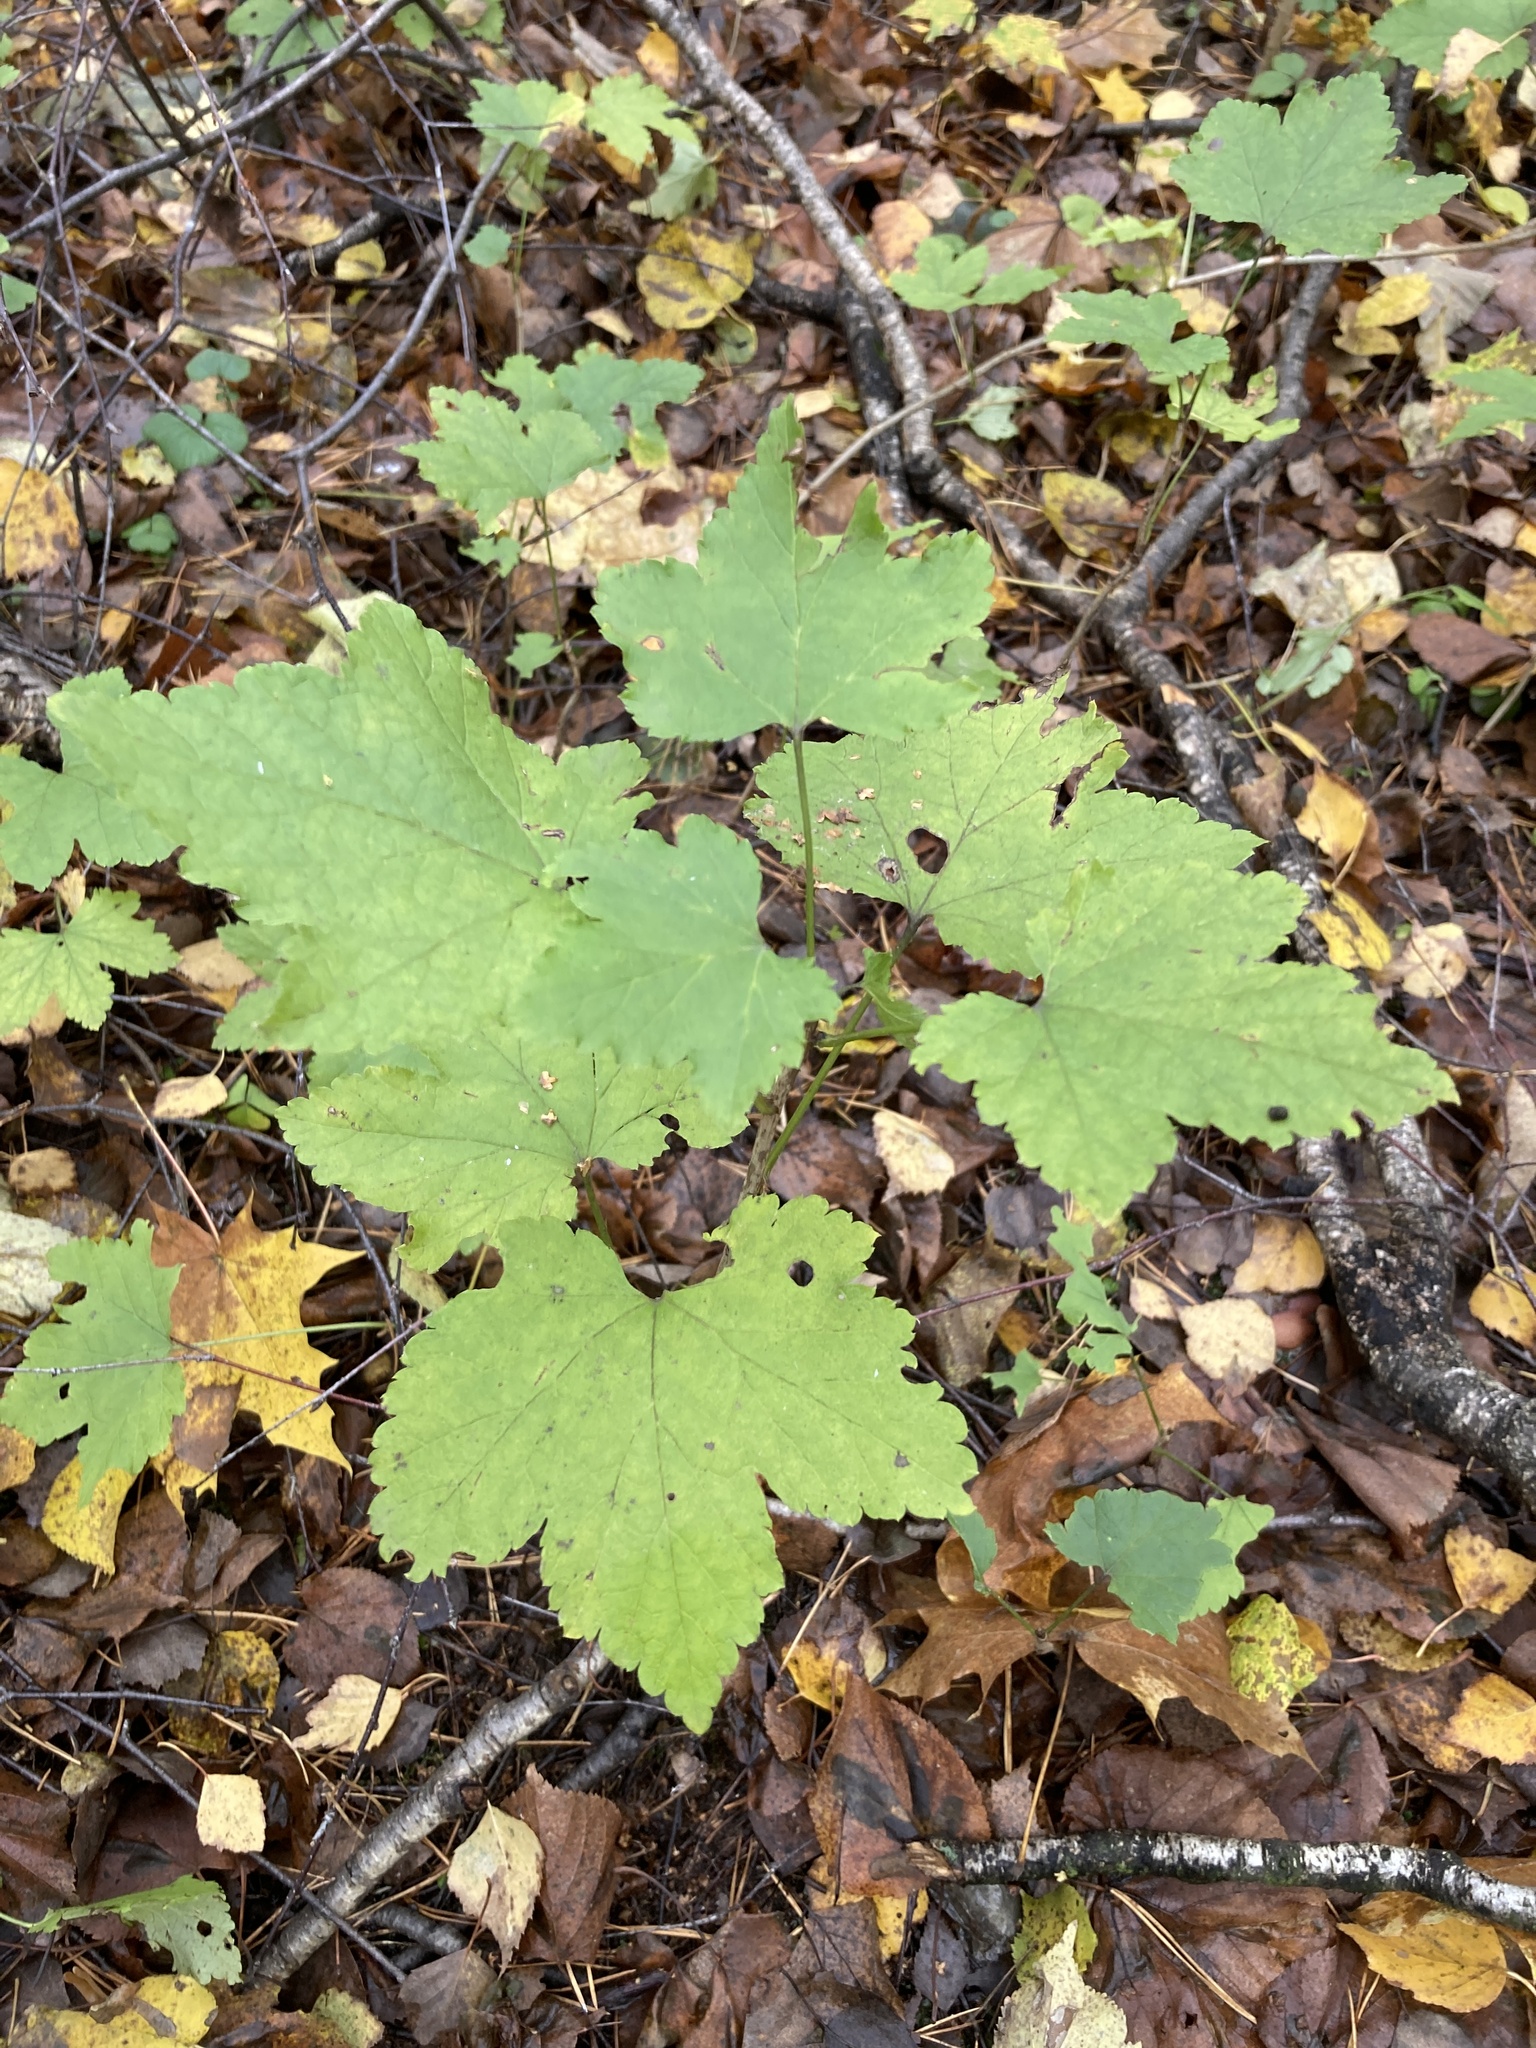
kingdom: Plantae
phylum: Tracheophyta
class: Magnoliopsida
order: Saxifragales
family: Grossulariaceae
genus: Ribes
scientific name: Ribes spicatum
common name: Downy currant
